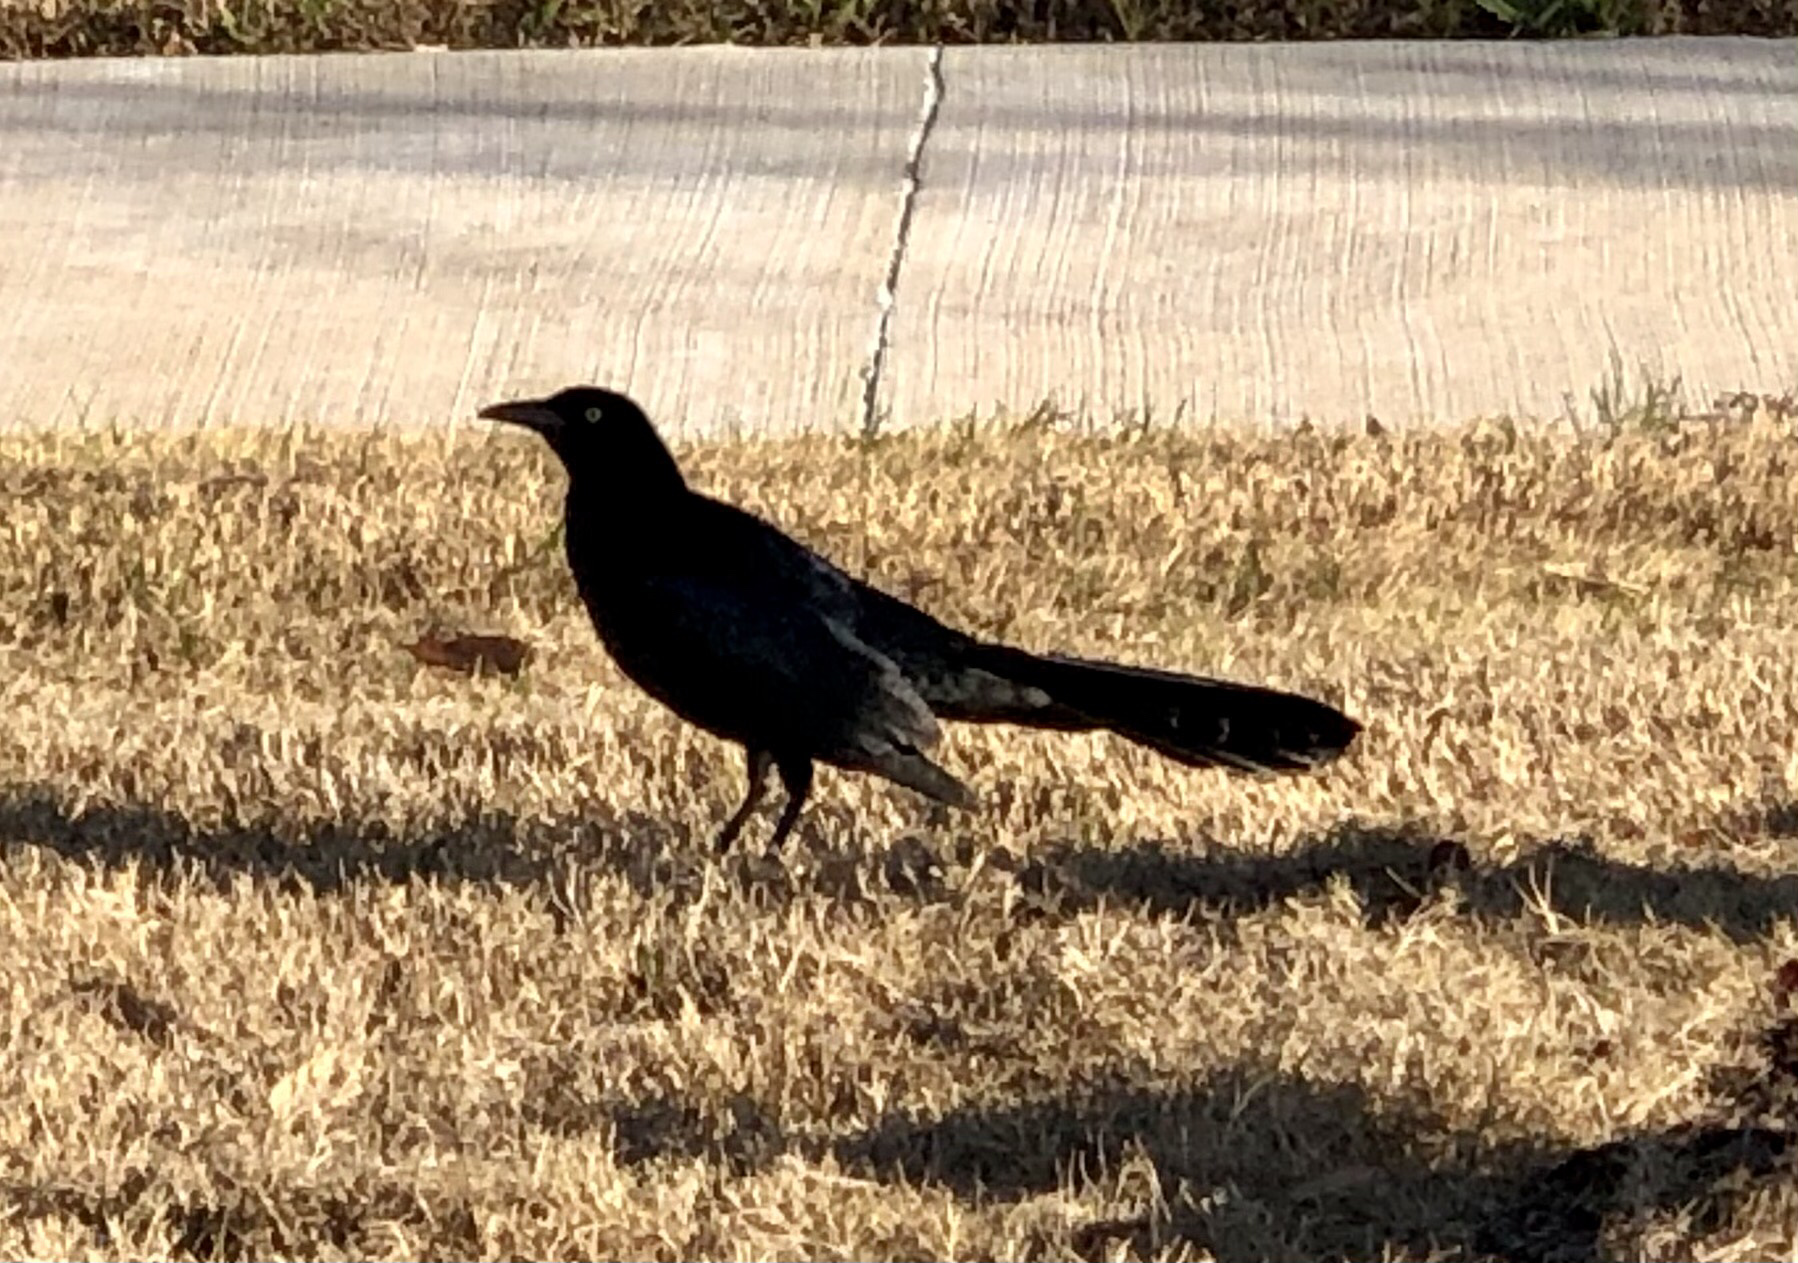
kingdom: Animalia
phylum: Chordata
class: Aves
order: Passeriformes
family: Icteridae
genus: Quiscalus
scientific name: Quiscalus mexicanus
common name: Great-tailed grackle
